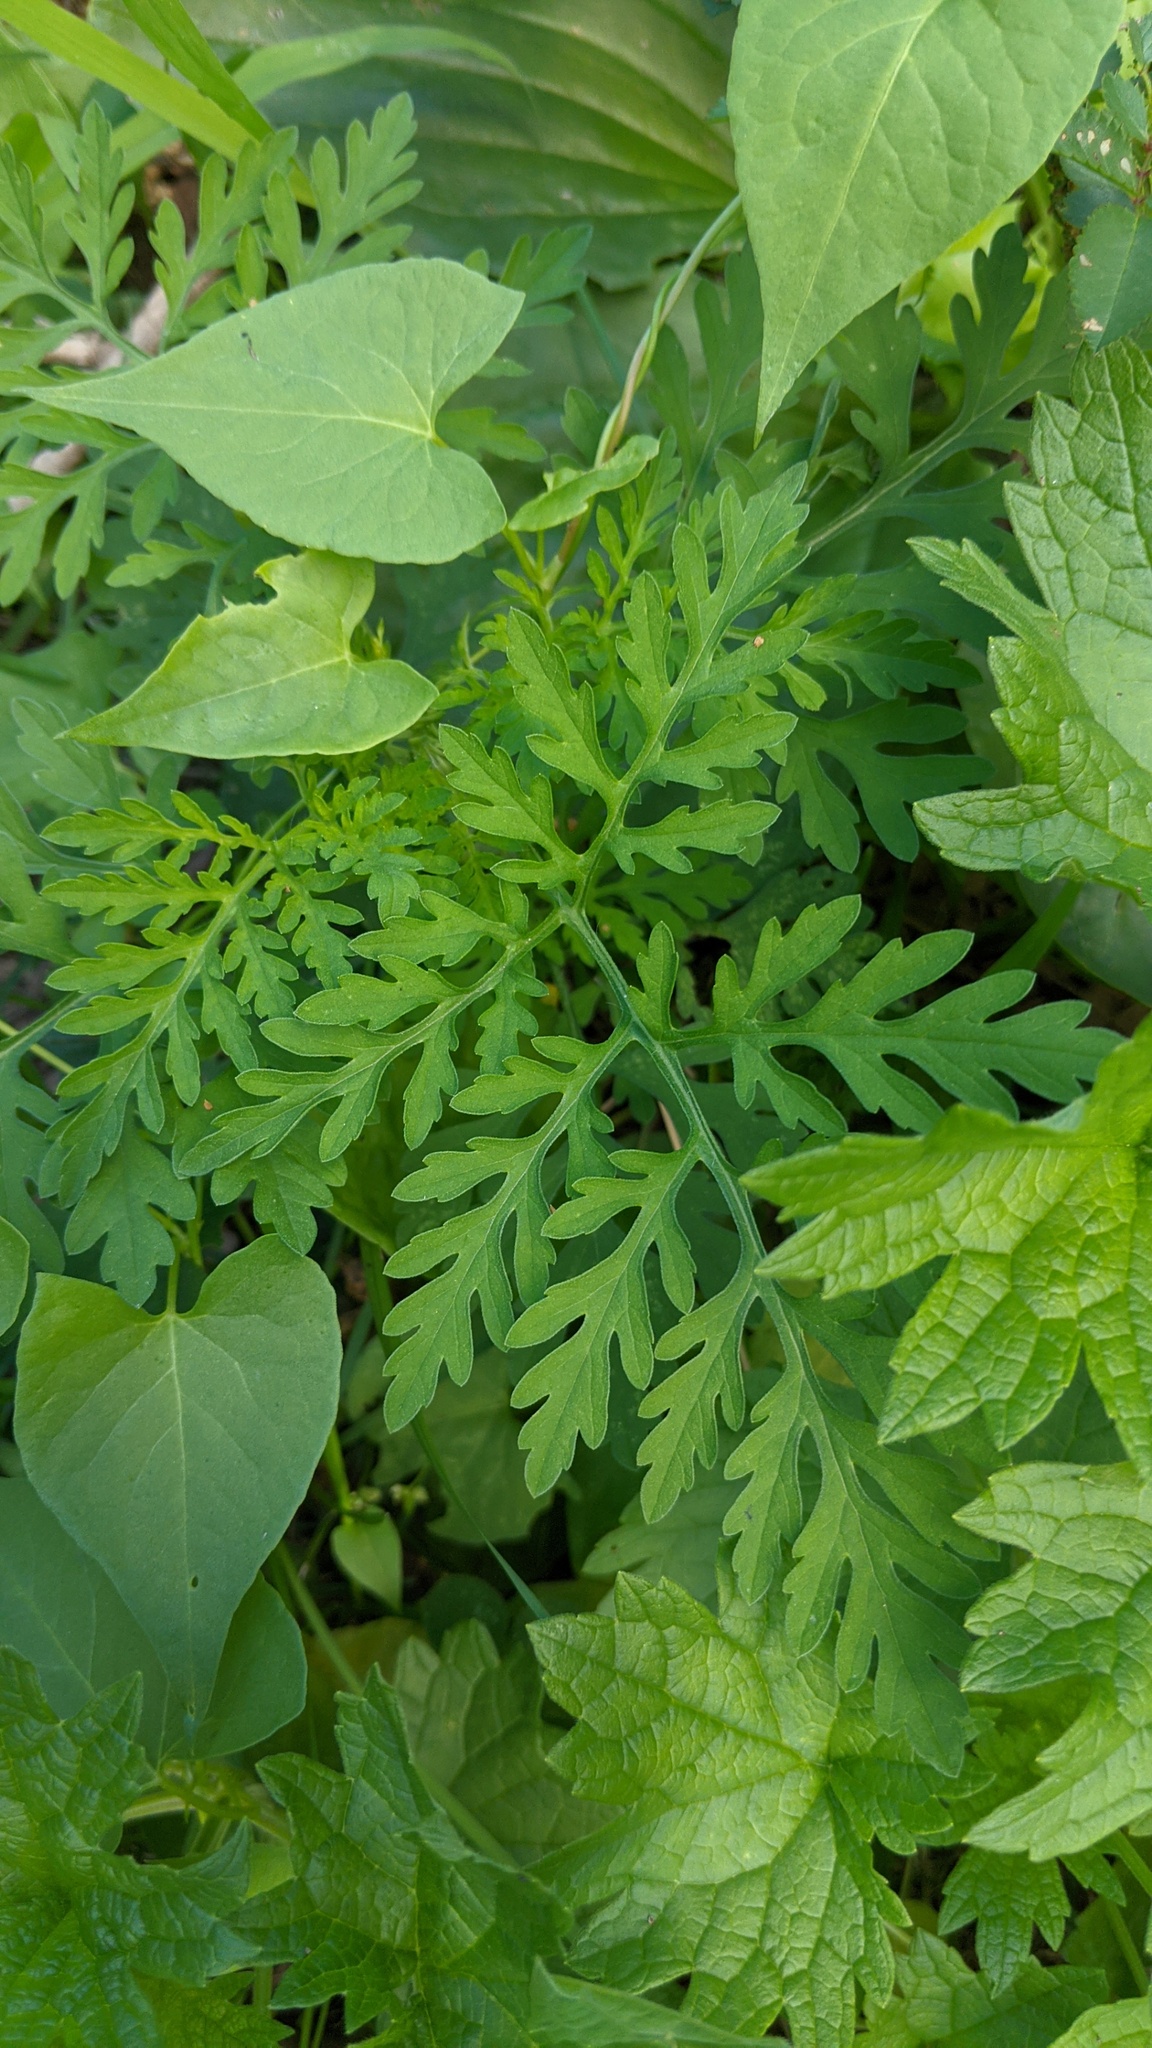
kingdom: Plantae
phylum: Tracheophyta
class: Magnoliopsida
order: Asterales
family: Asteraceae
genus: Ambrosia
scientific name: Ambrosia artemisiifolia
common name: Annual ragweed
